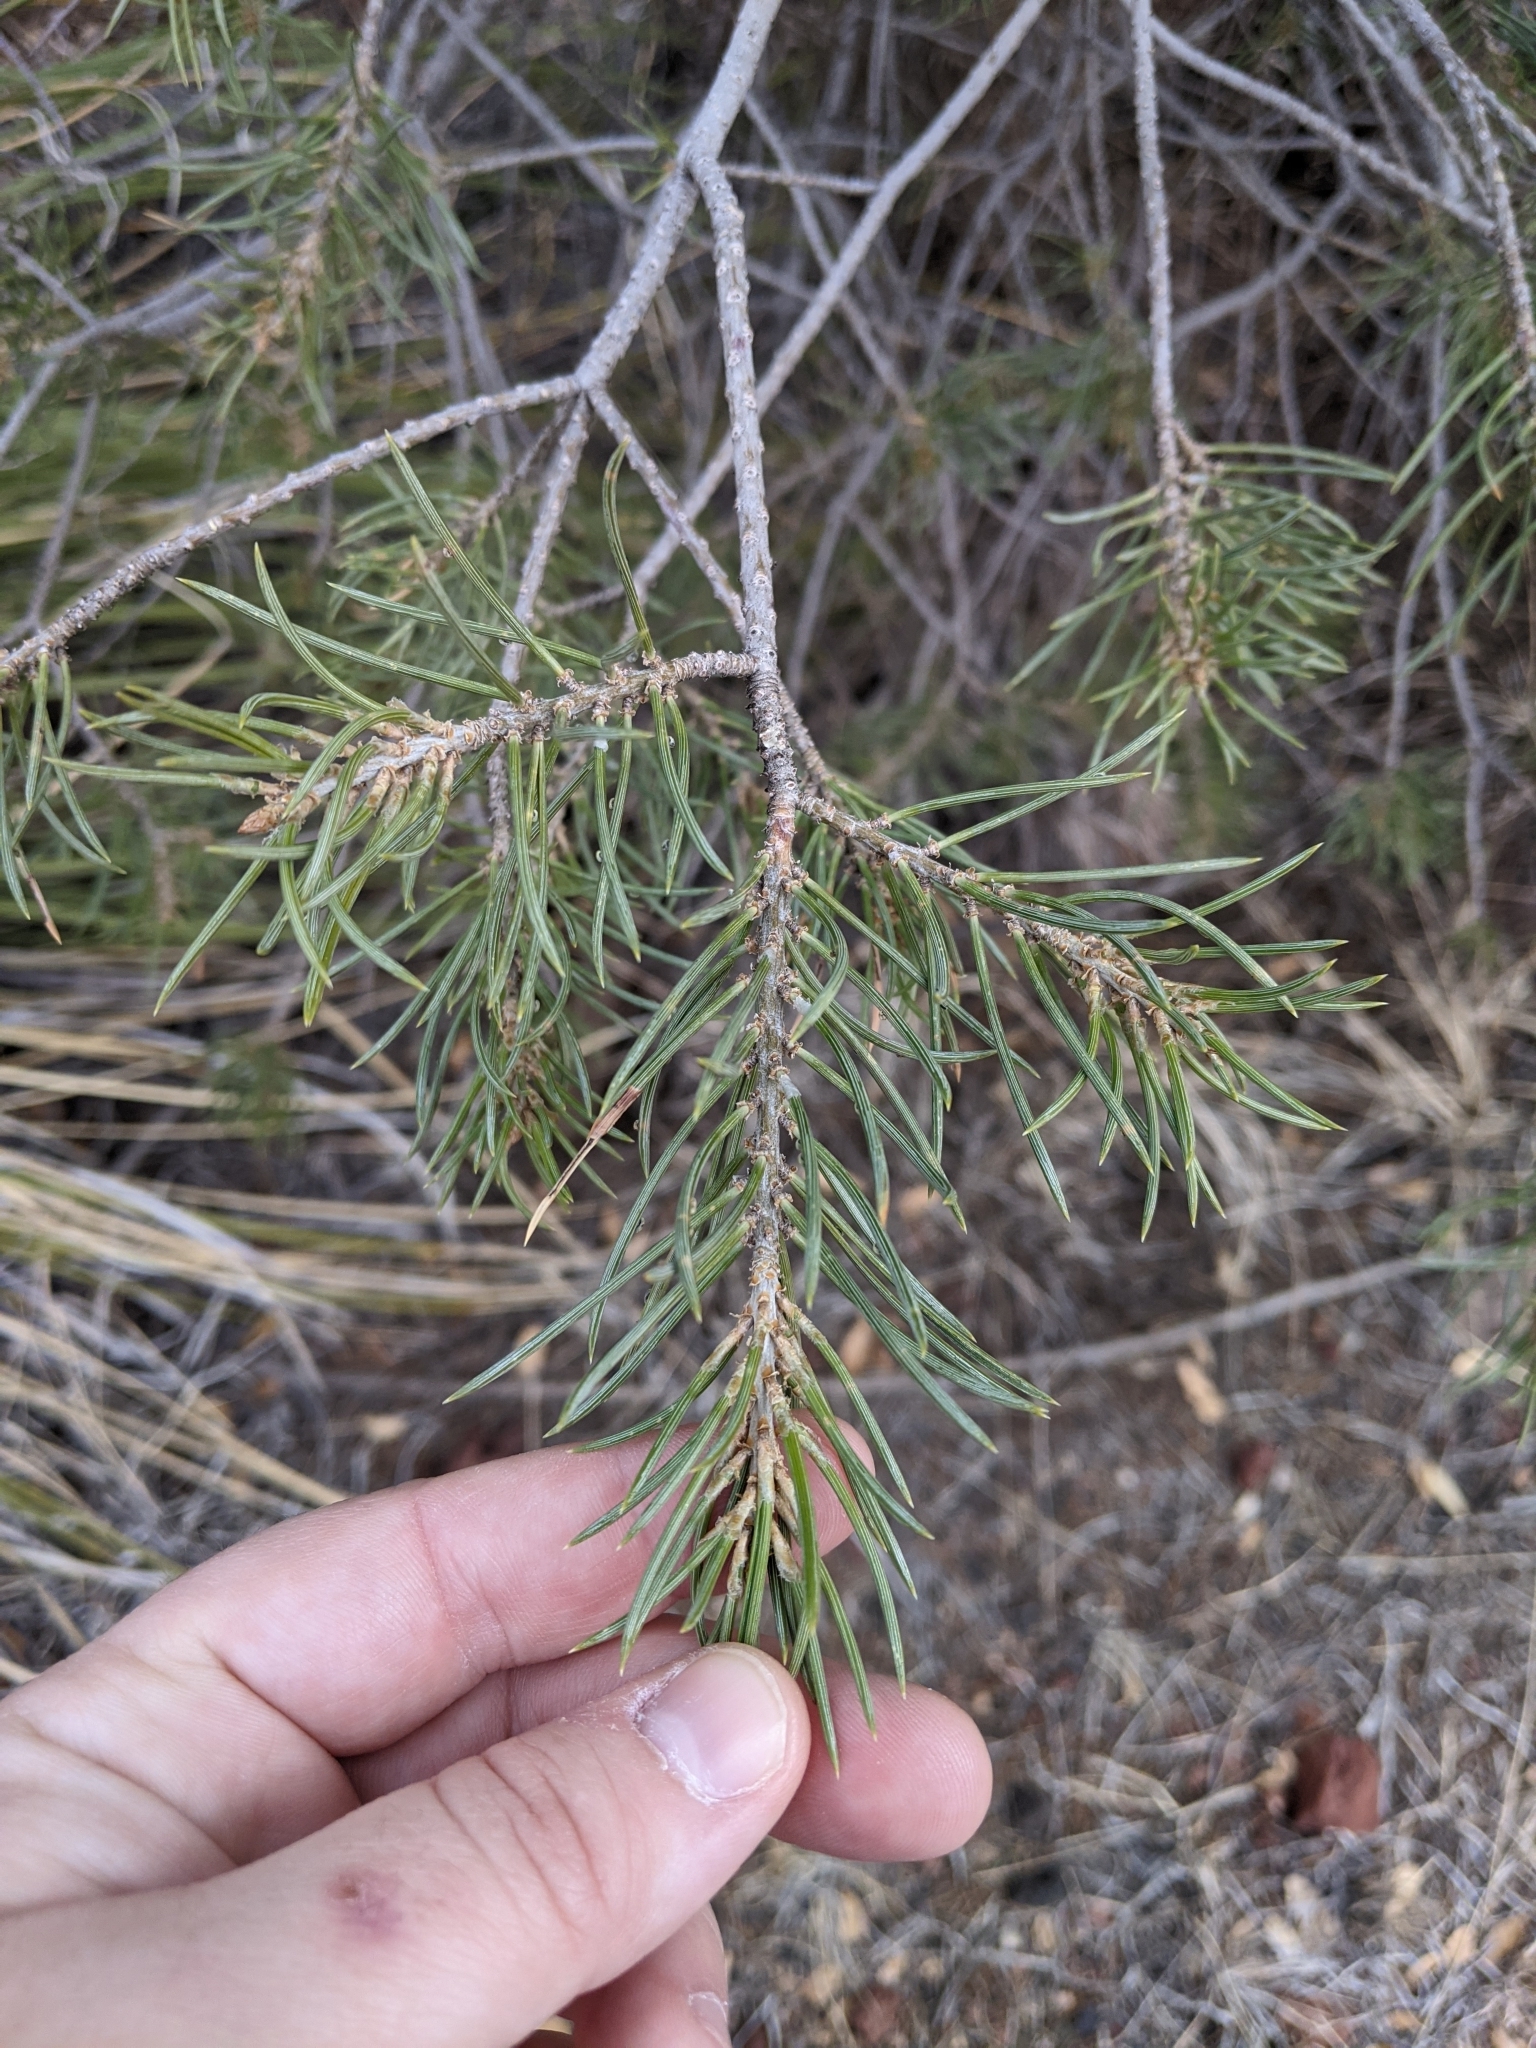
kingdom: Plantae
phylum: Tracheophyta
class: Pinopsida
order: Pinales
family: Pinaceae
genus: Pinus
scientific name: Pinus edulis
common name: Colorado pinyon
